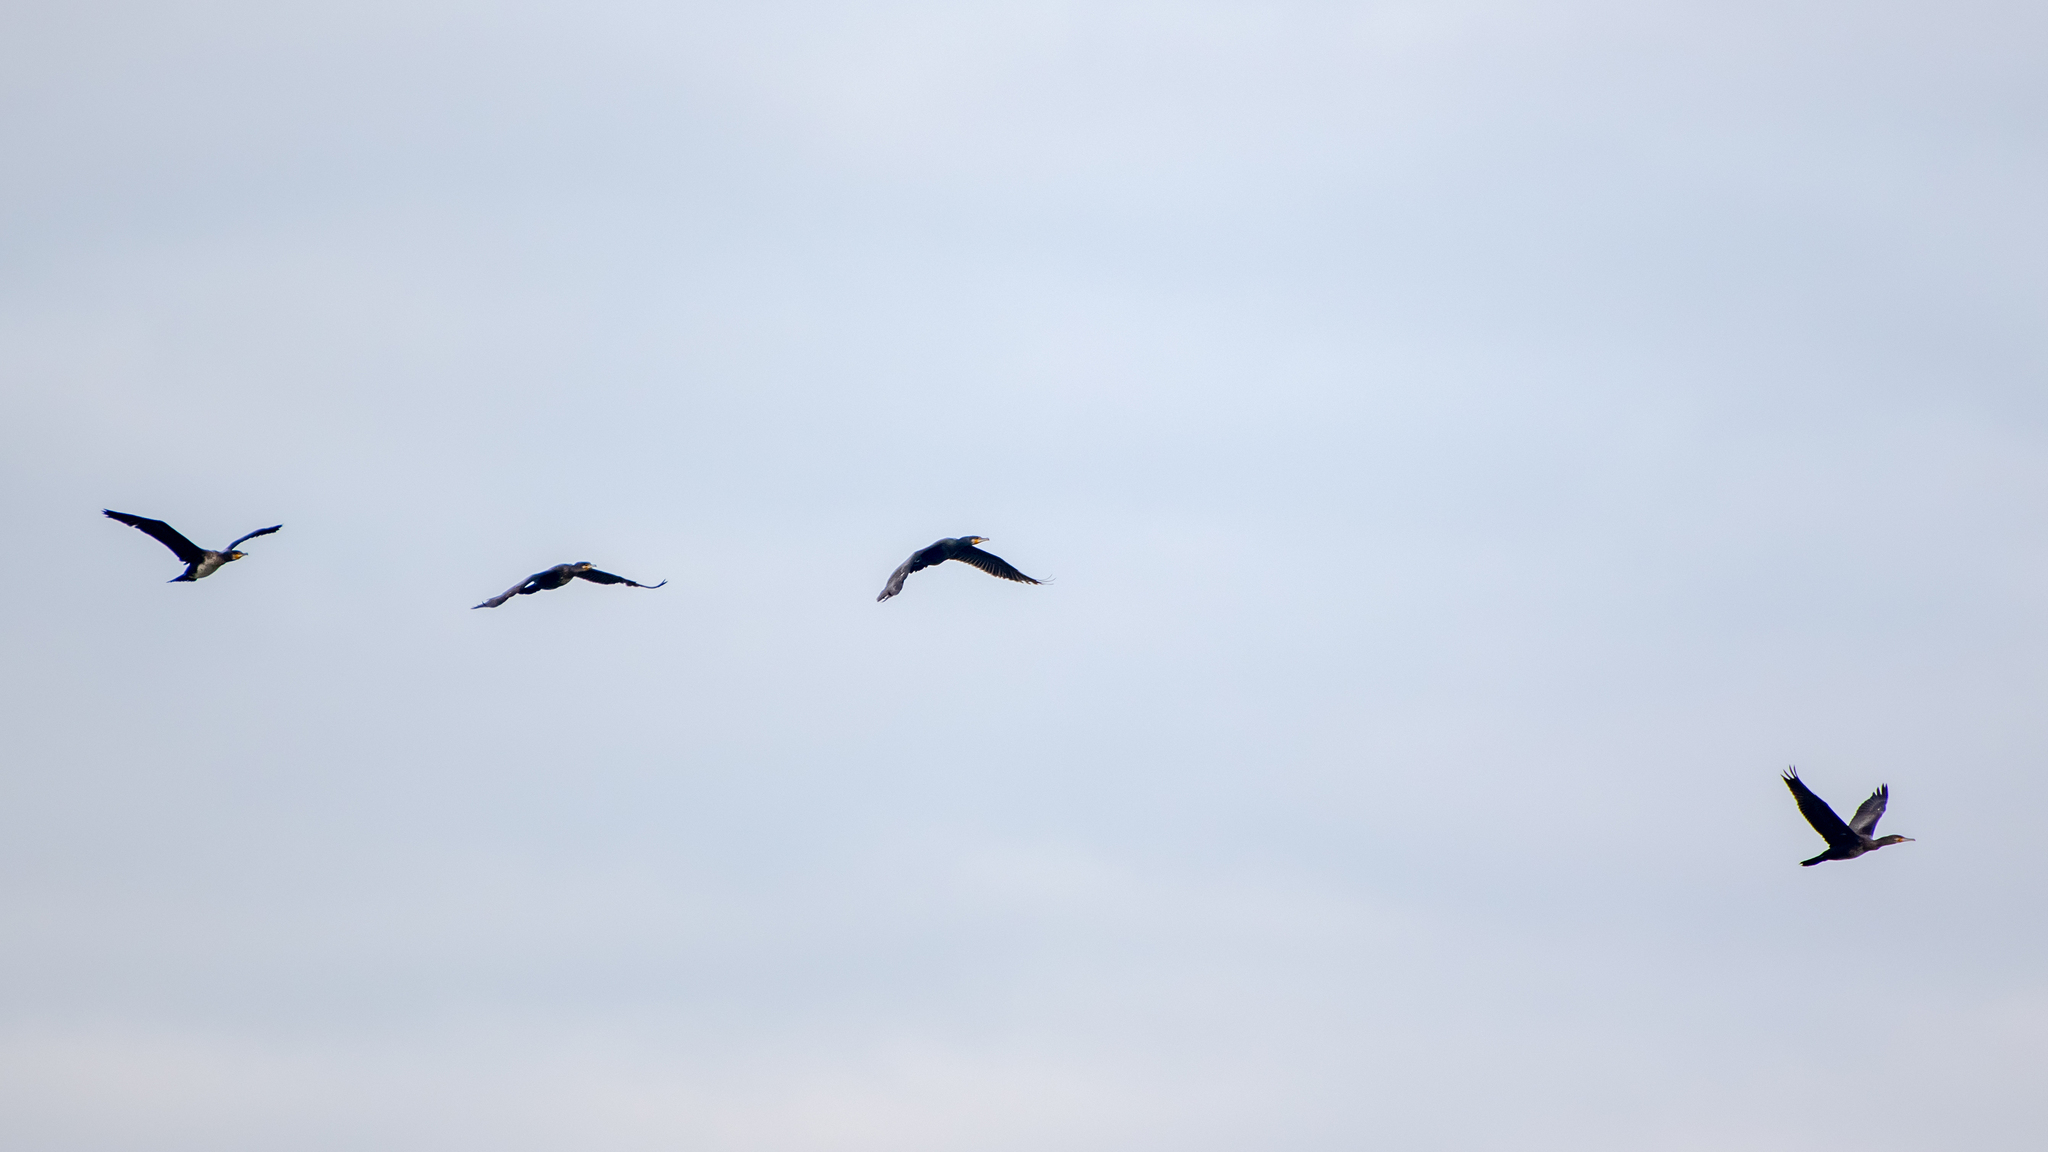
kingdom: Animalia
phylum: Chordata
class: Aves
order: Suliformes
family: Phalacrocoracidae
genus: Phalacrocorax
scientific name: Phalacrocorax carbo
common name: Great cormorant
